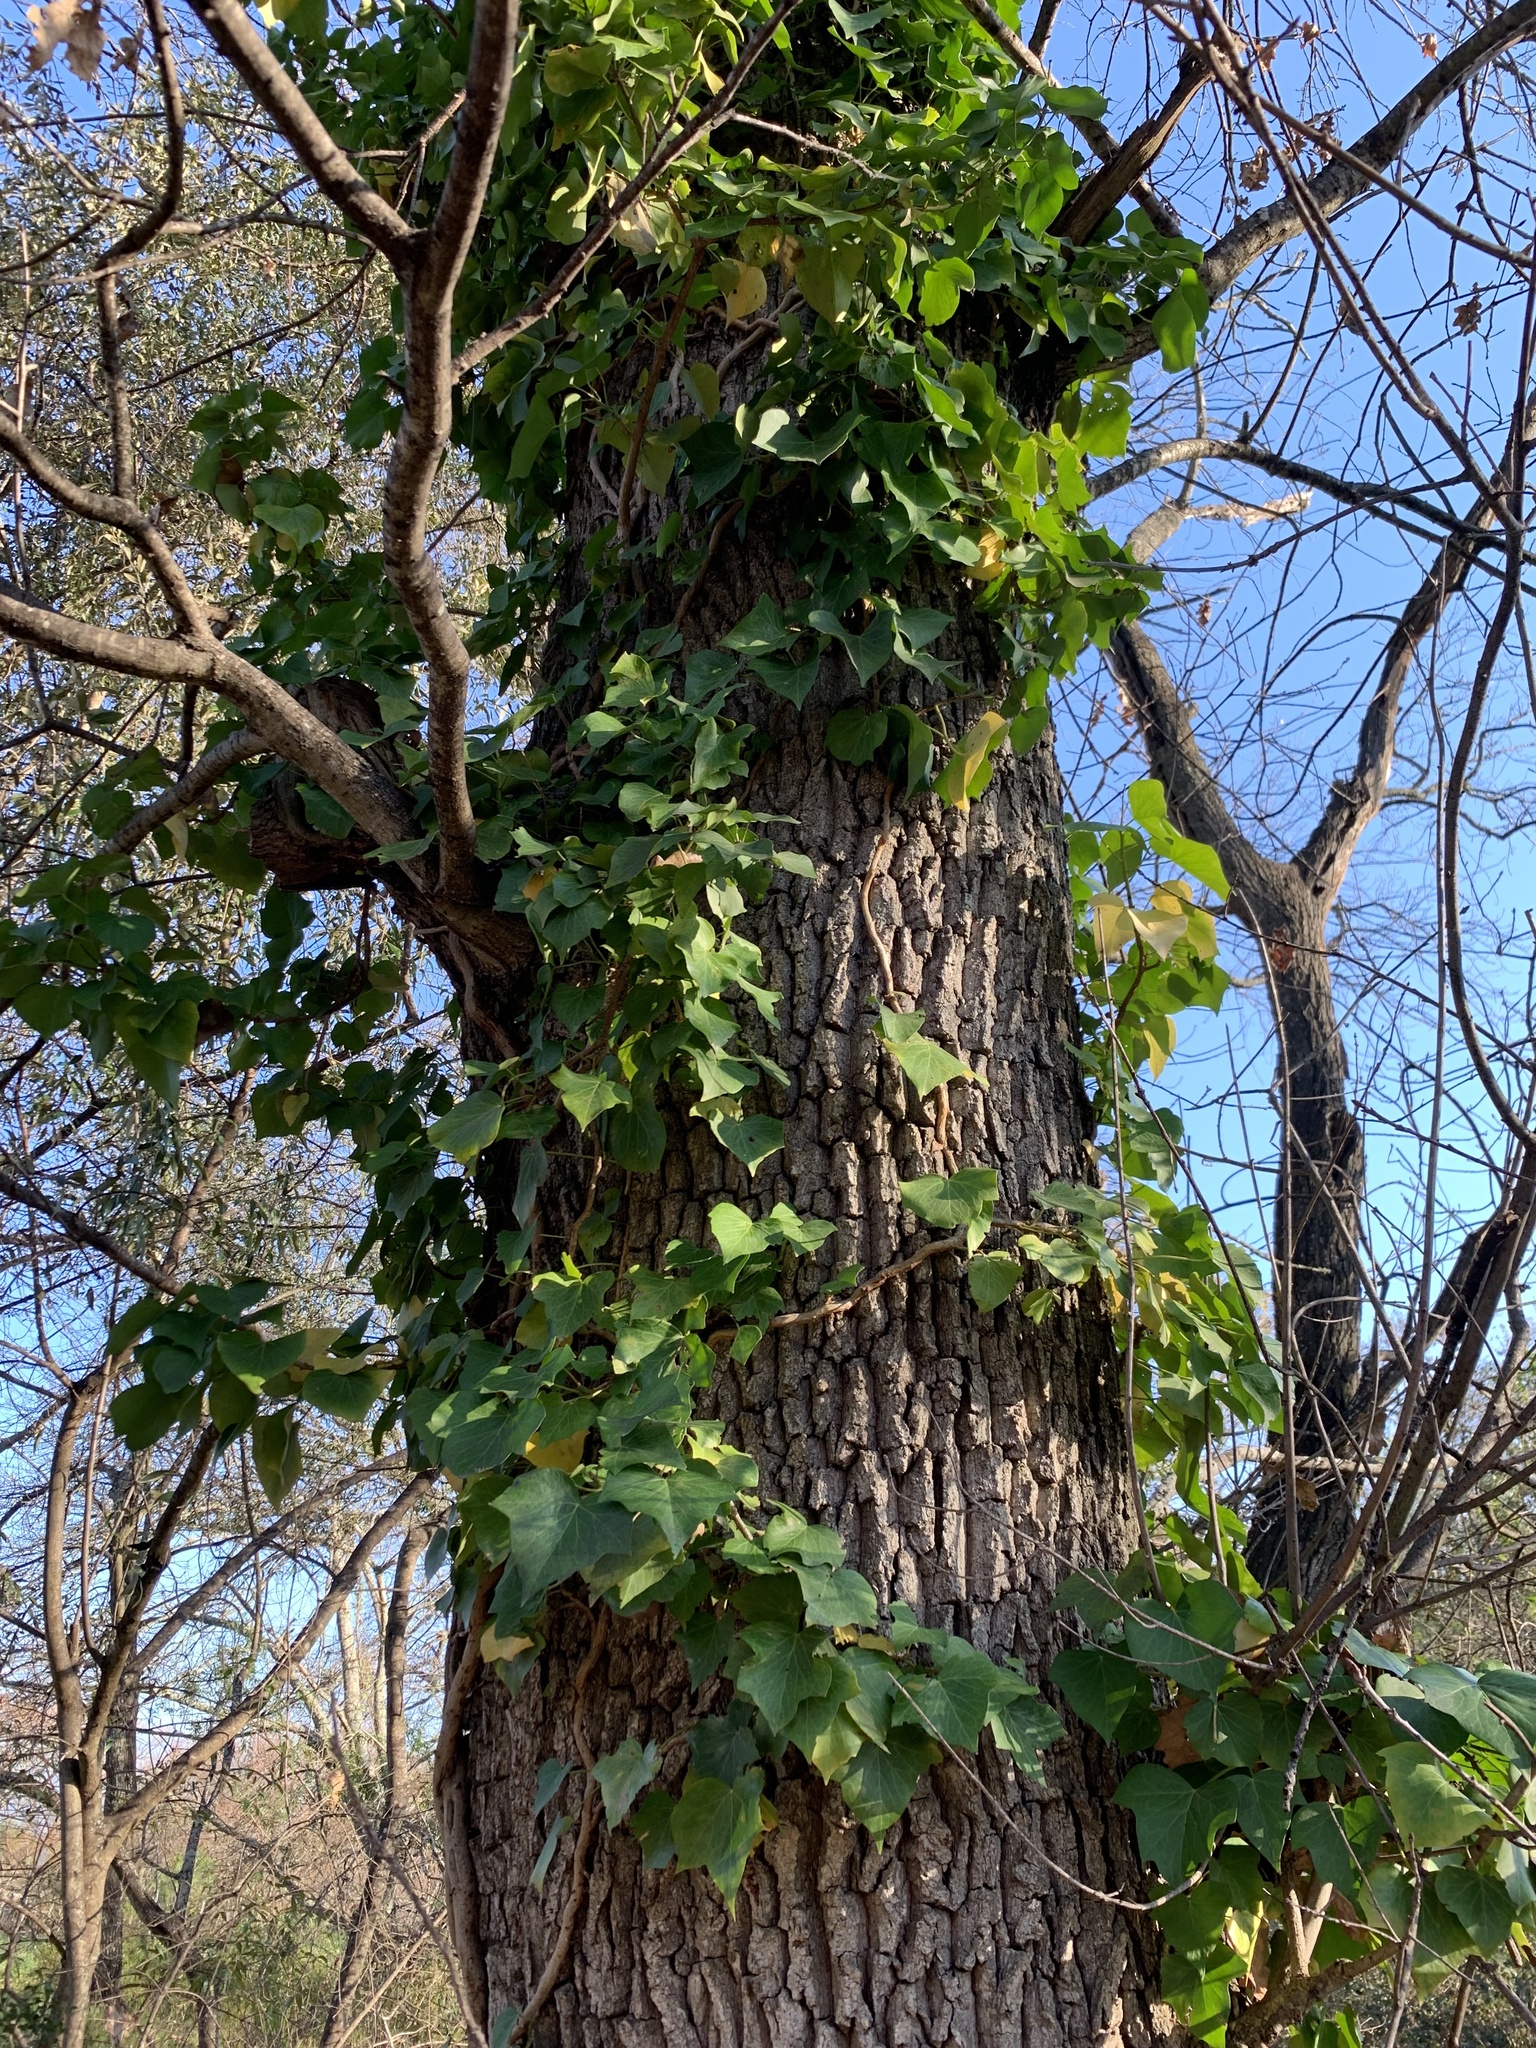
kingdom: Plantae
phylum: Tracheophyta
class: Magnoliopsida
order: Apiales
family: Araliaceae
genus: Hedera
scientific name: Hedera helix
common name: Ivy
